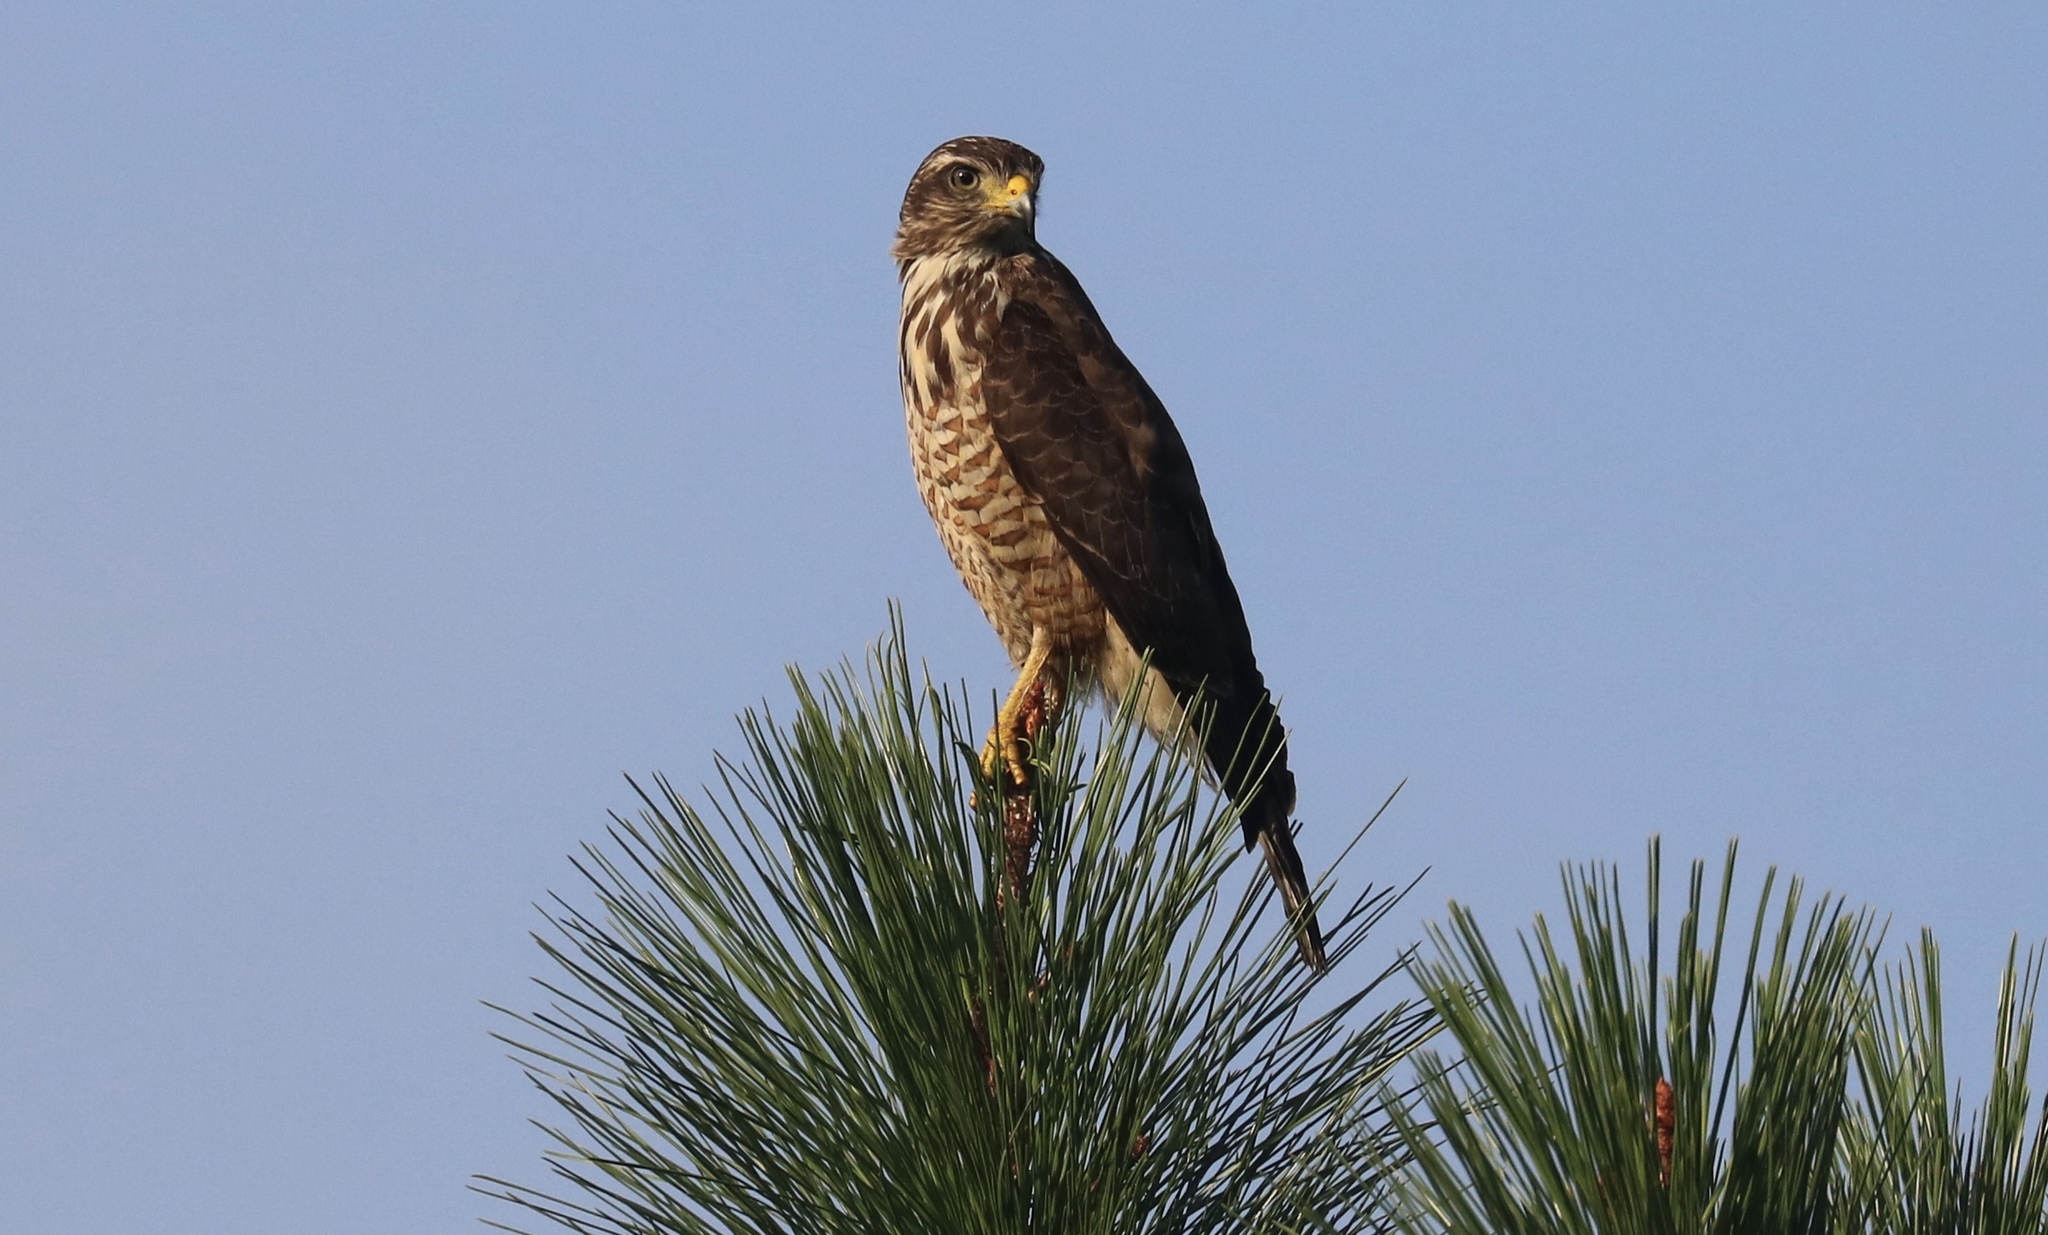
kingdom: Animalia
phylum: Chordata
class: Aves
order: Accipitriformes
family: Accipitridae
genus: Rupornis
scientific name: Rupornis magnirostris
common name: Roadside hawk
